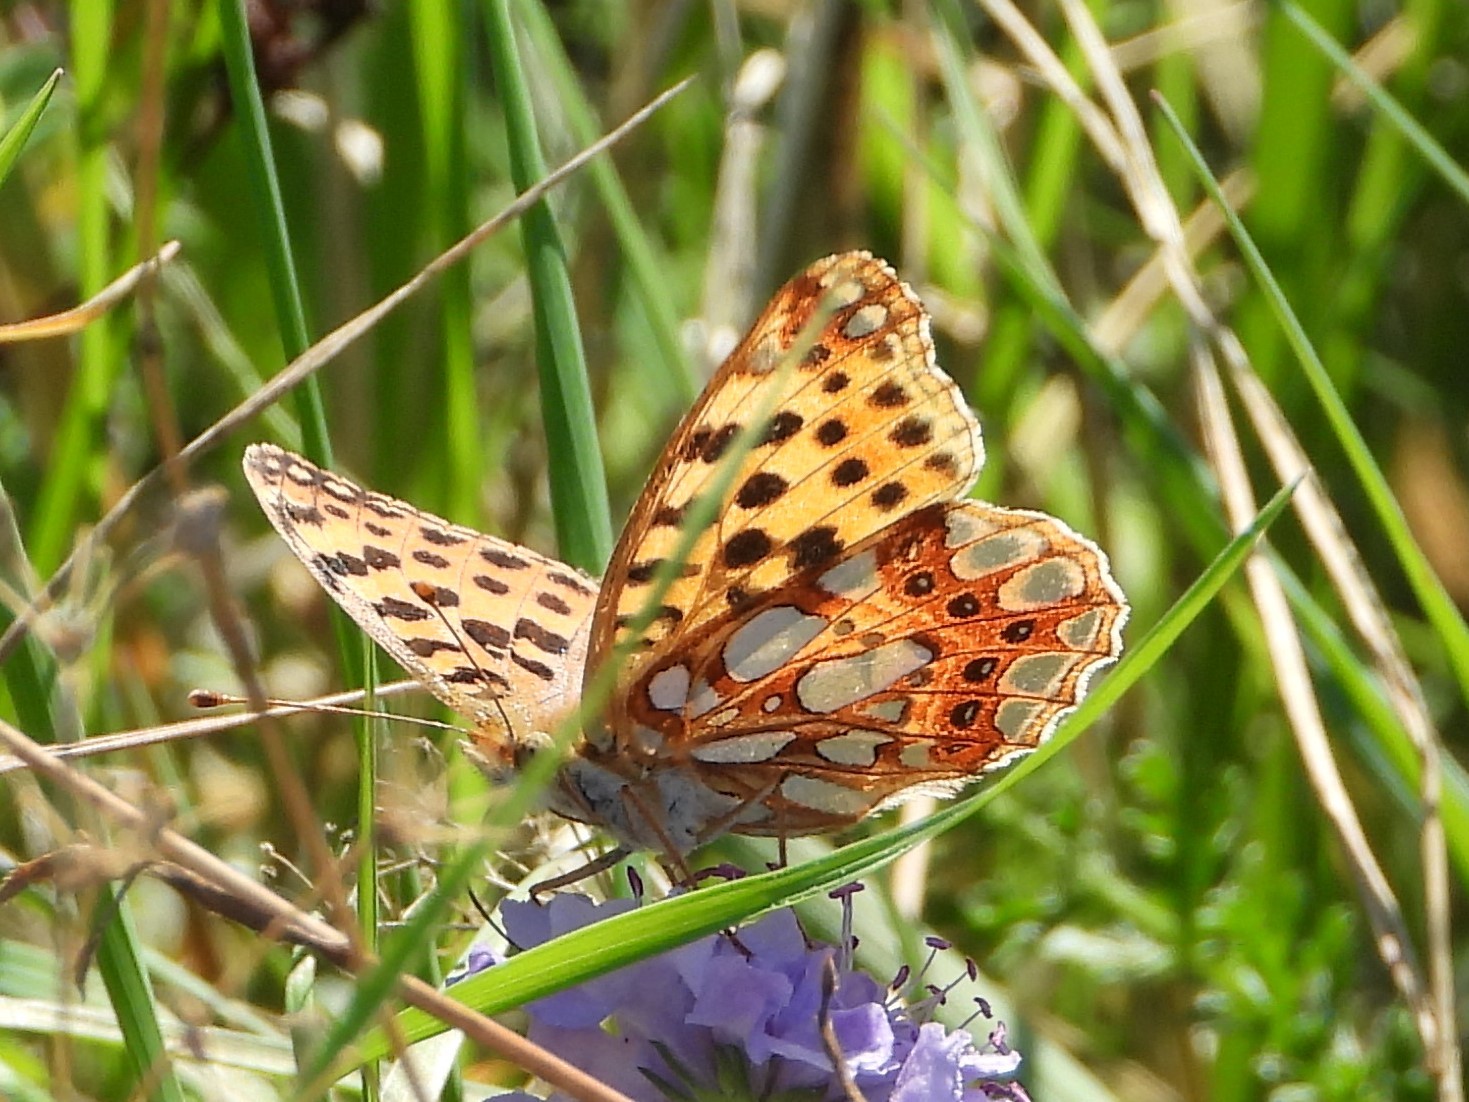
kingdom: Animalia
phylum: Arthropoda
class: Insecta
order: Lepidoptera
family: Nymphalidae
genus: Issoria
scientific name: Issoria lathonia
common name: Queen of spain fritillary
